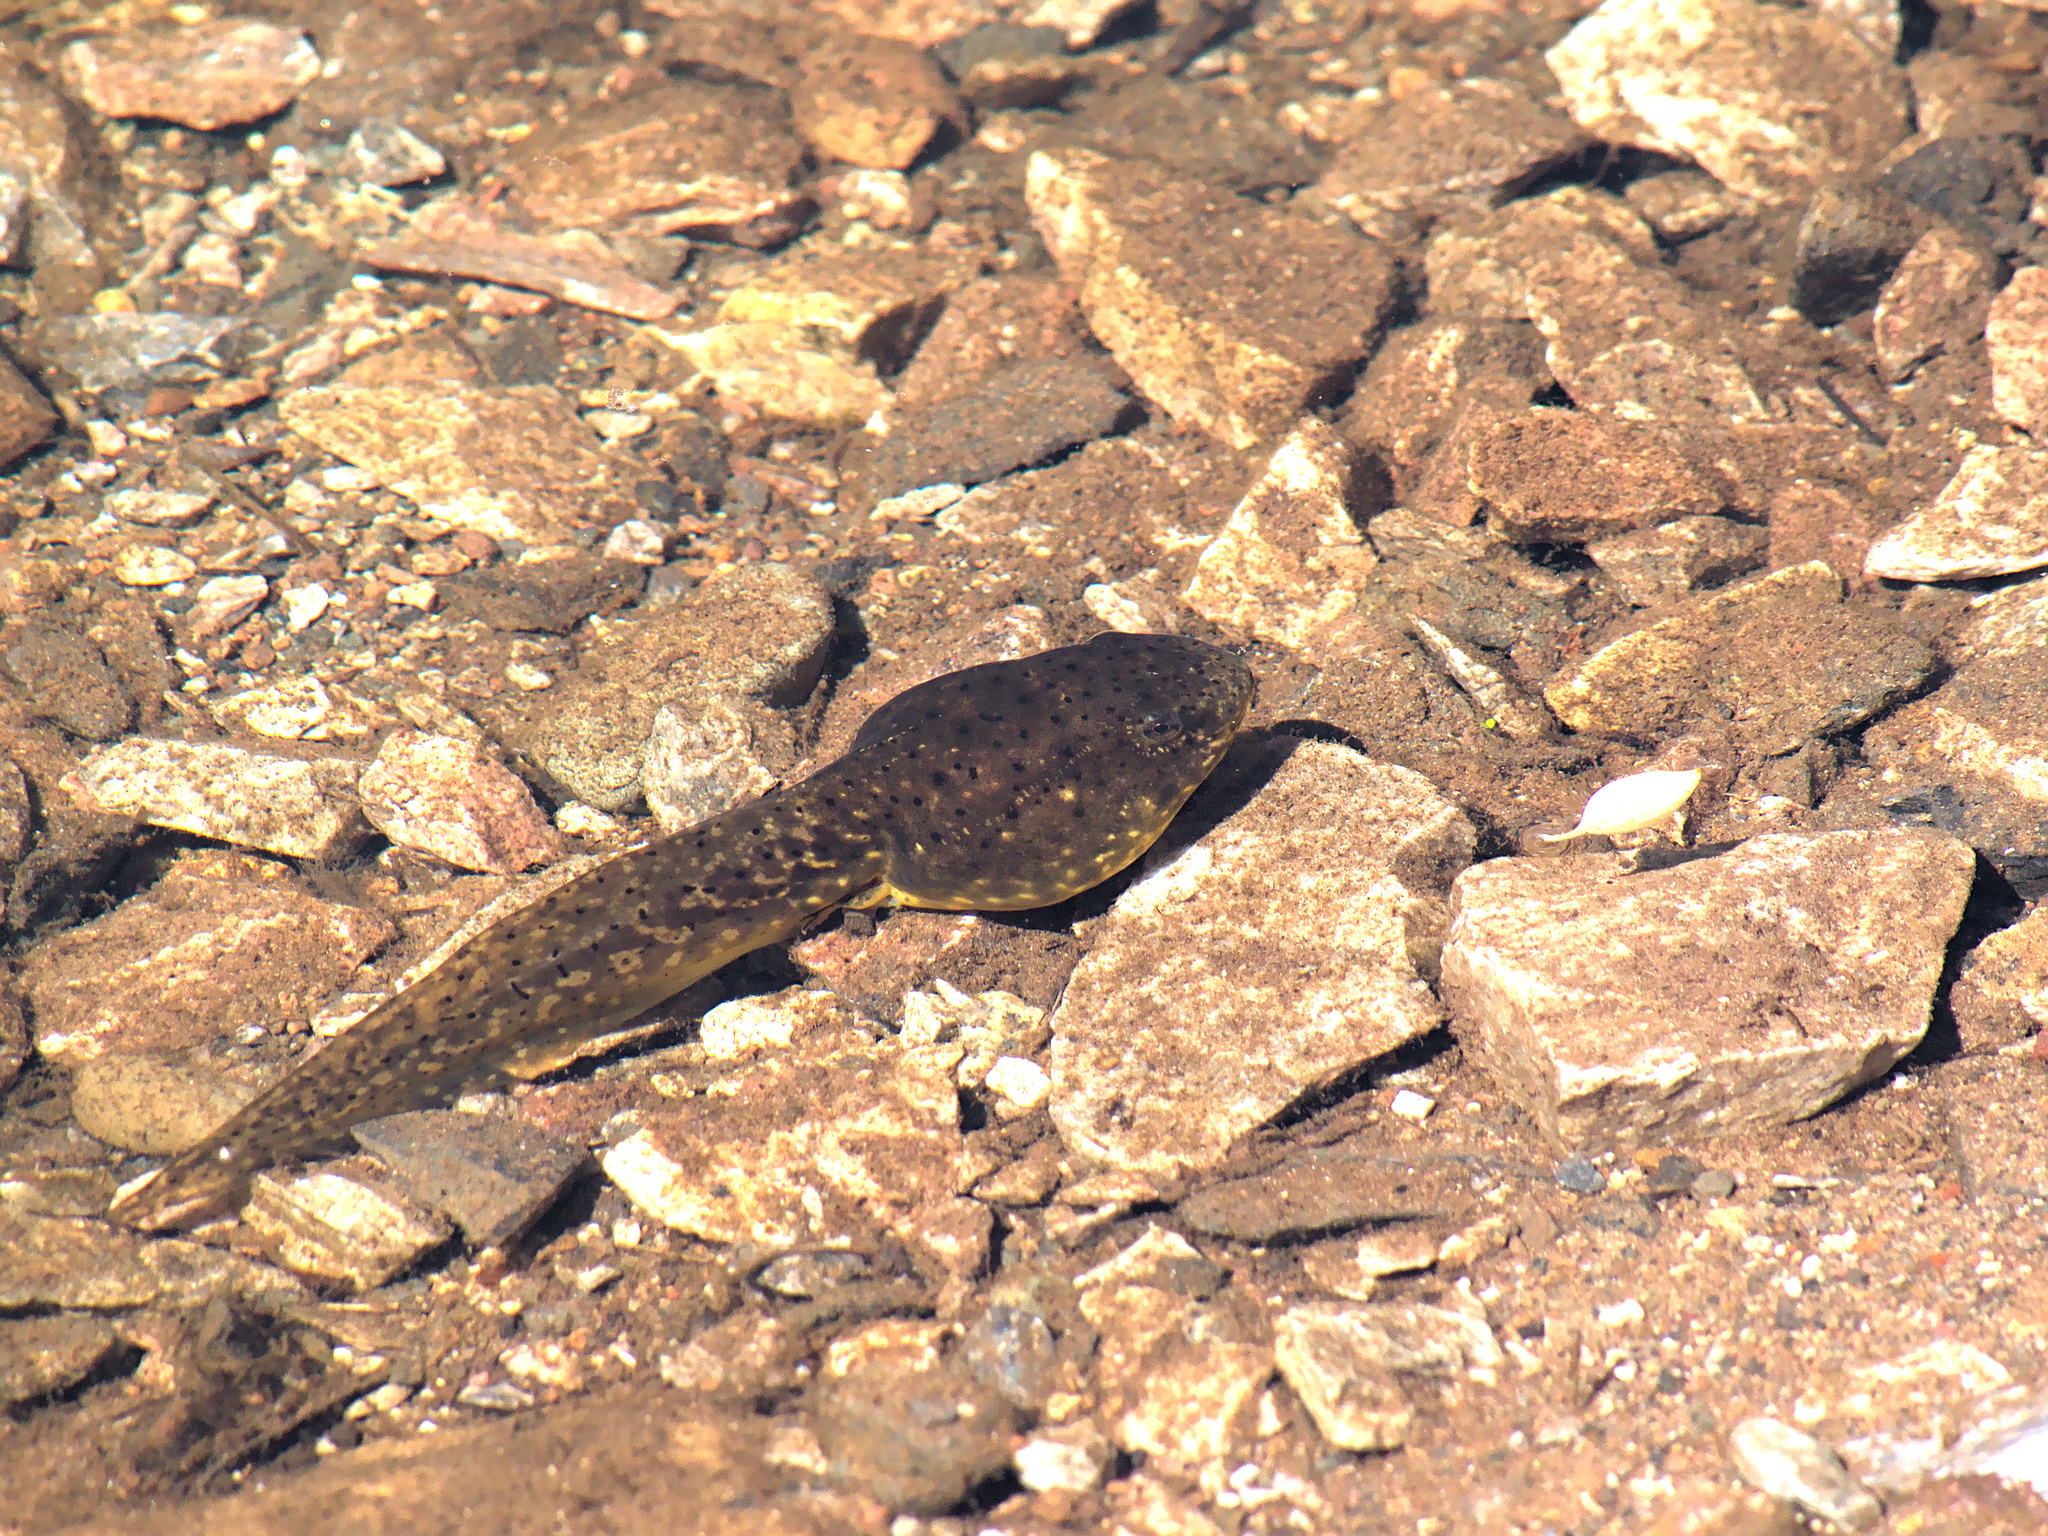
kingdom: Animalia
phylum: Chordata
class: Amphibia
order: Anura
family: Ranidae
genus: Lithobates
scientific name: Lithobates catesbeianus
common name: American bullfrog
